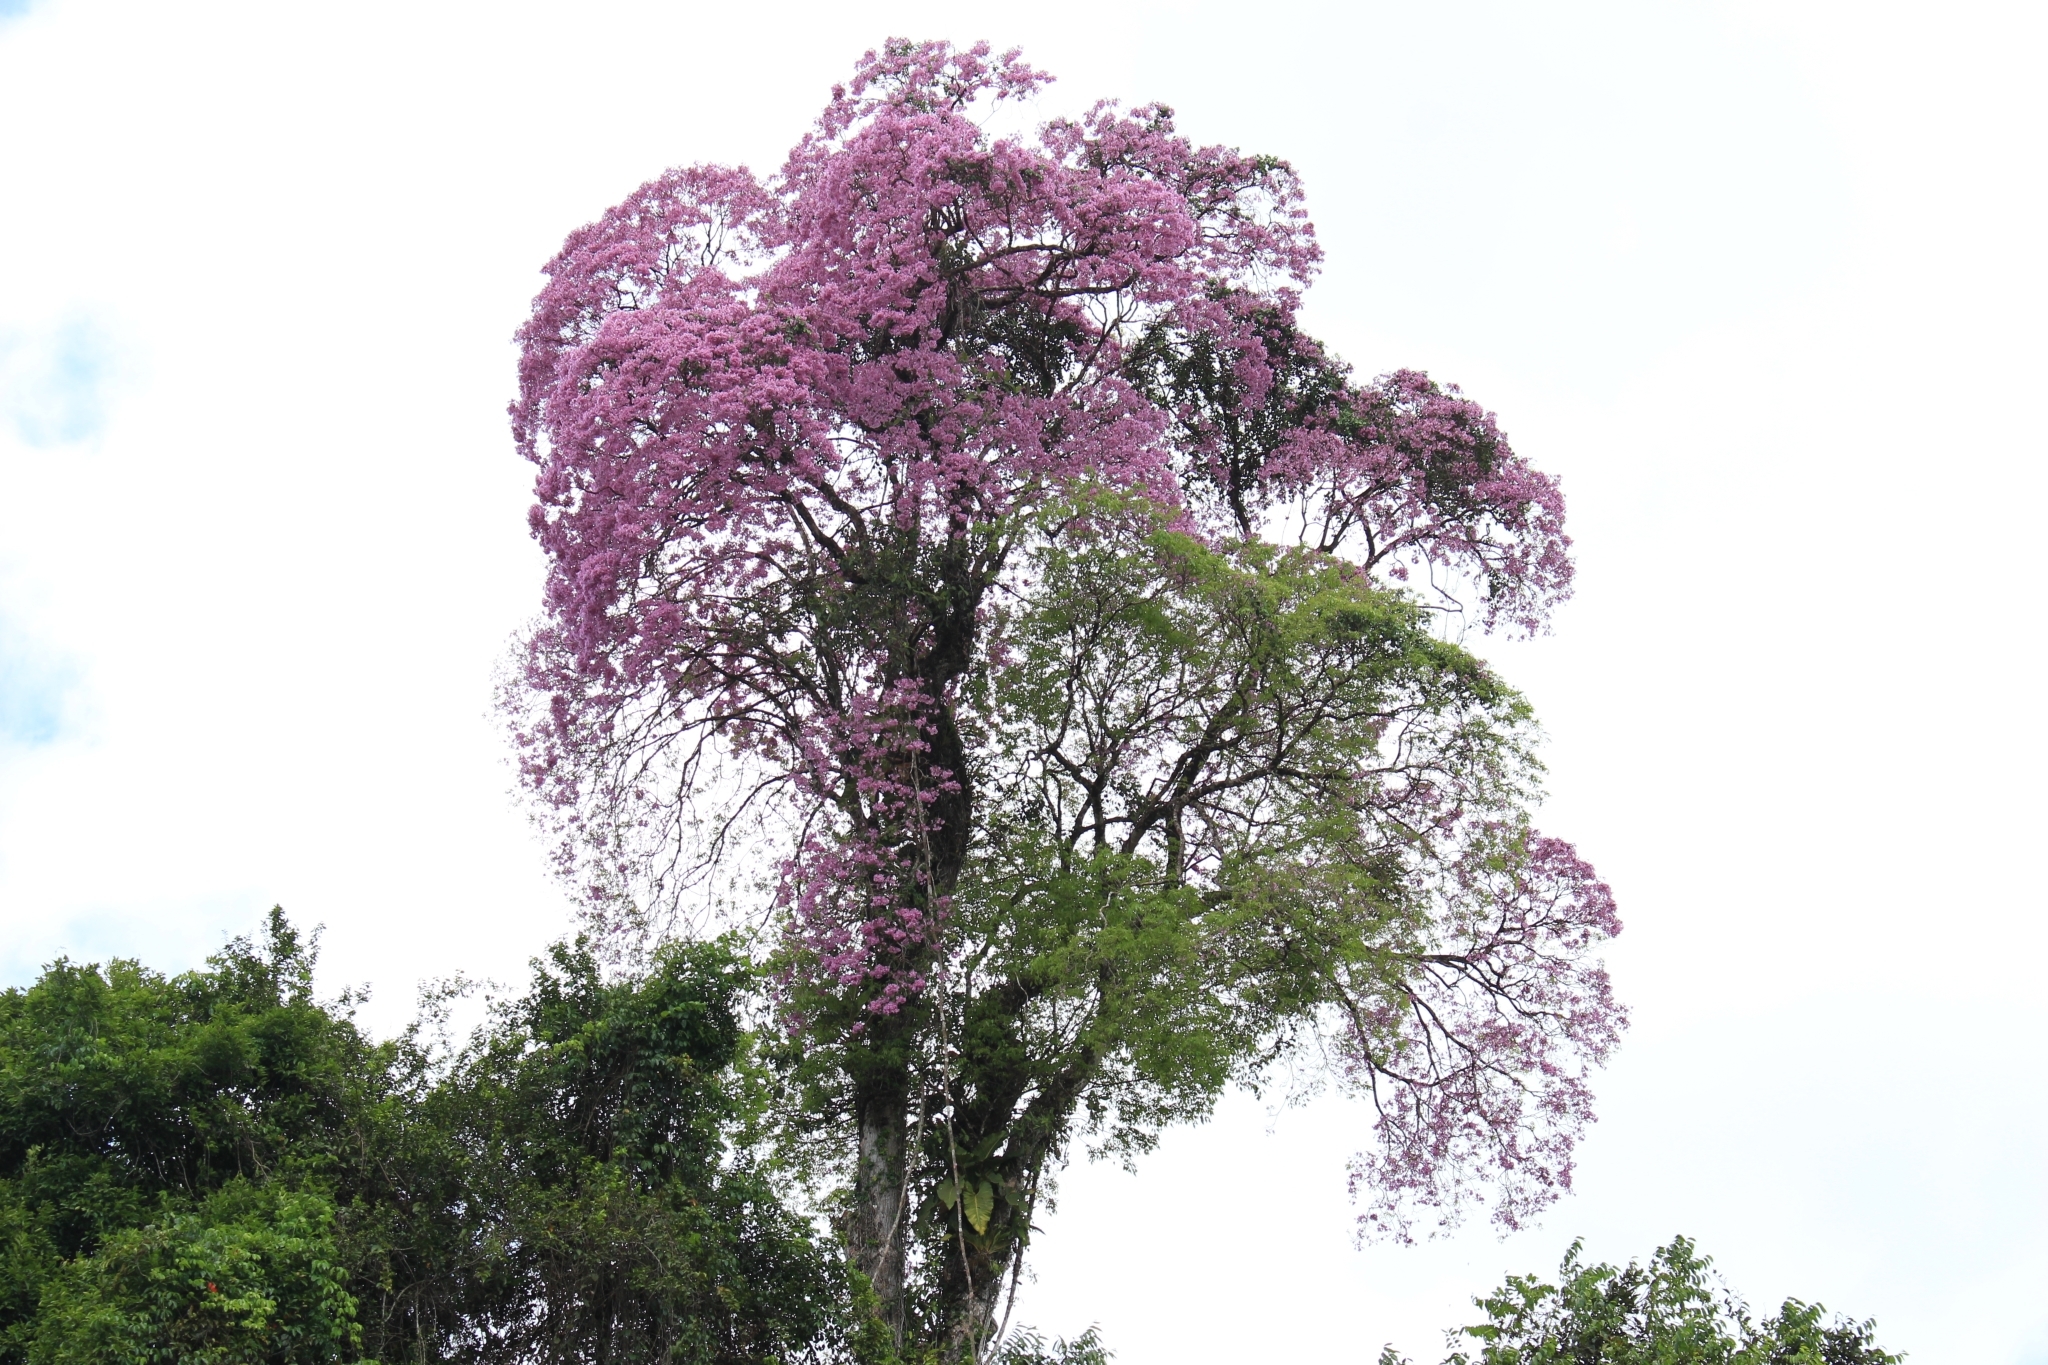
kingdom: Plantae
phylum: Tracheophyta
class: Magnoliopsida
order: Lamiales
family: Bignoniaceae
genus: Handroanthus
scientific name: Handroanthus impetiginosum
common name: Pink trumpet tree
